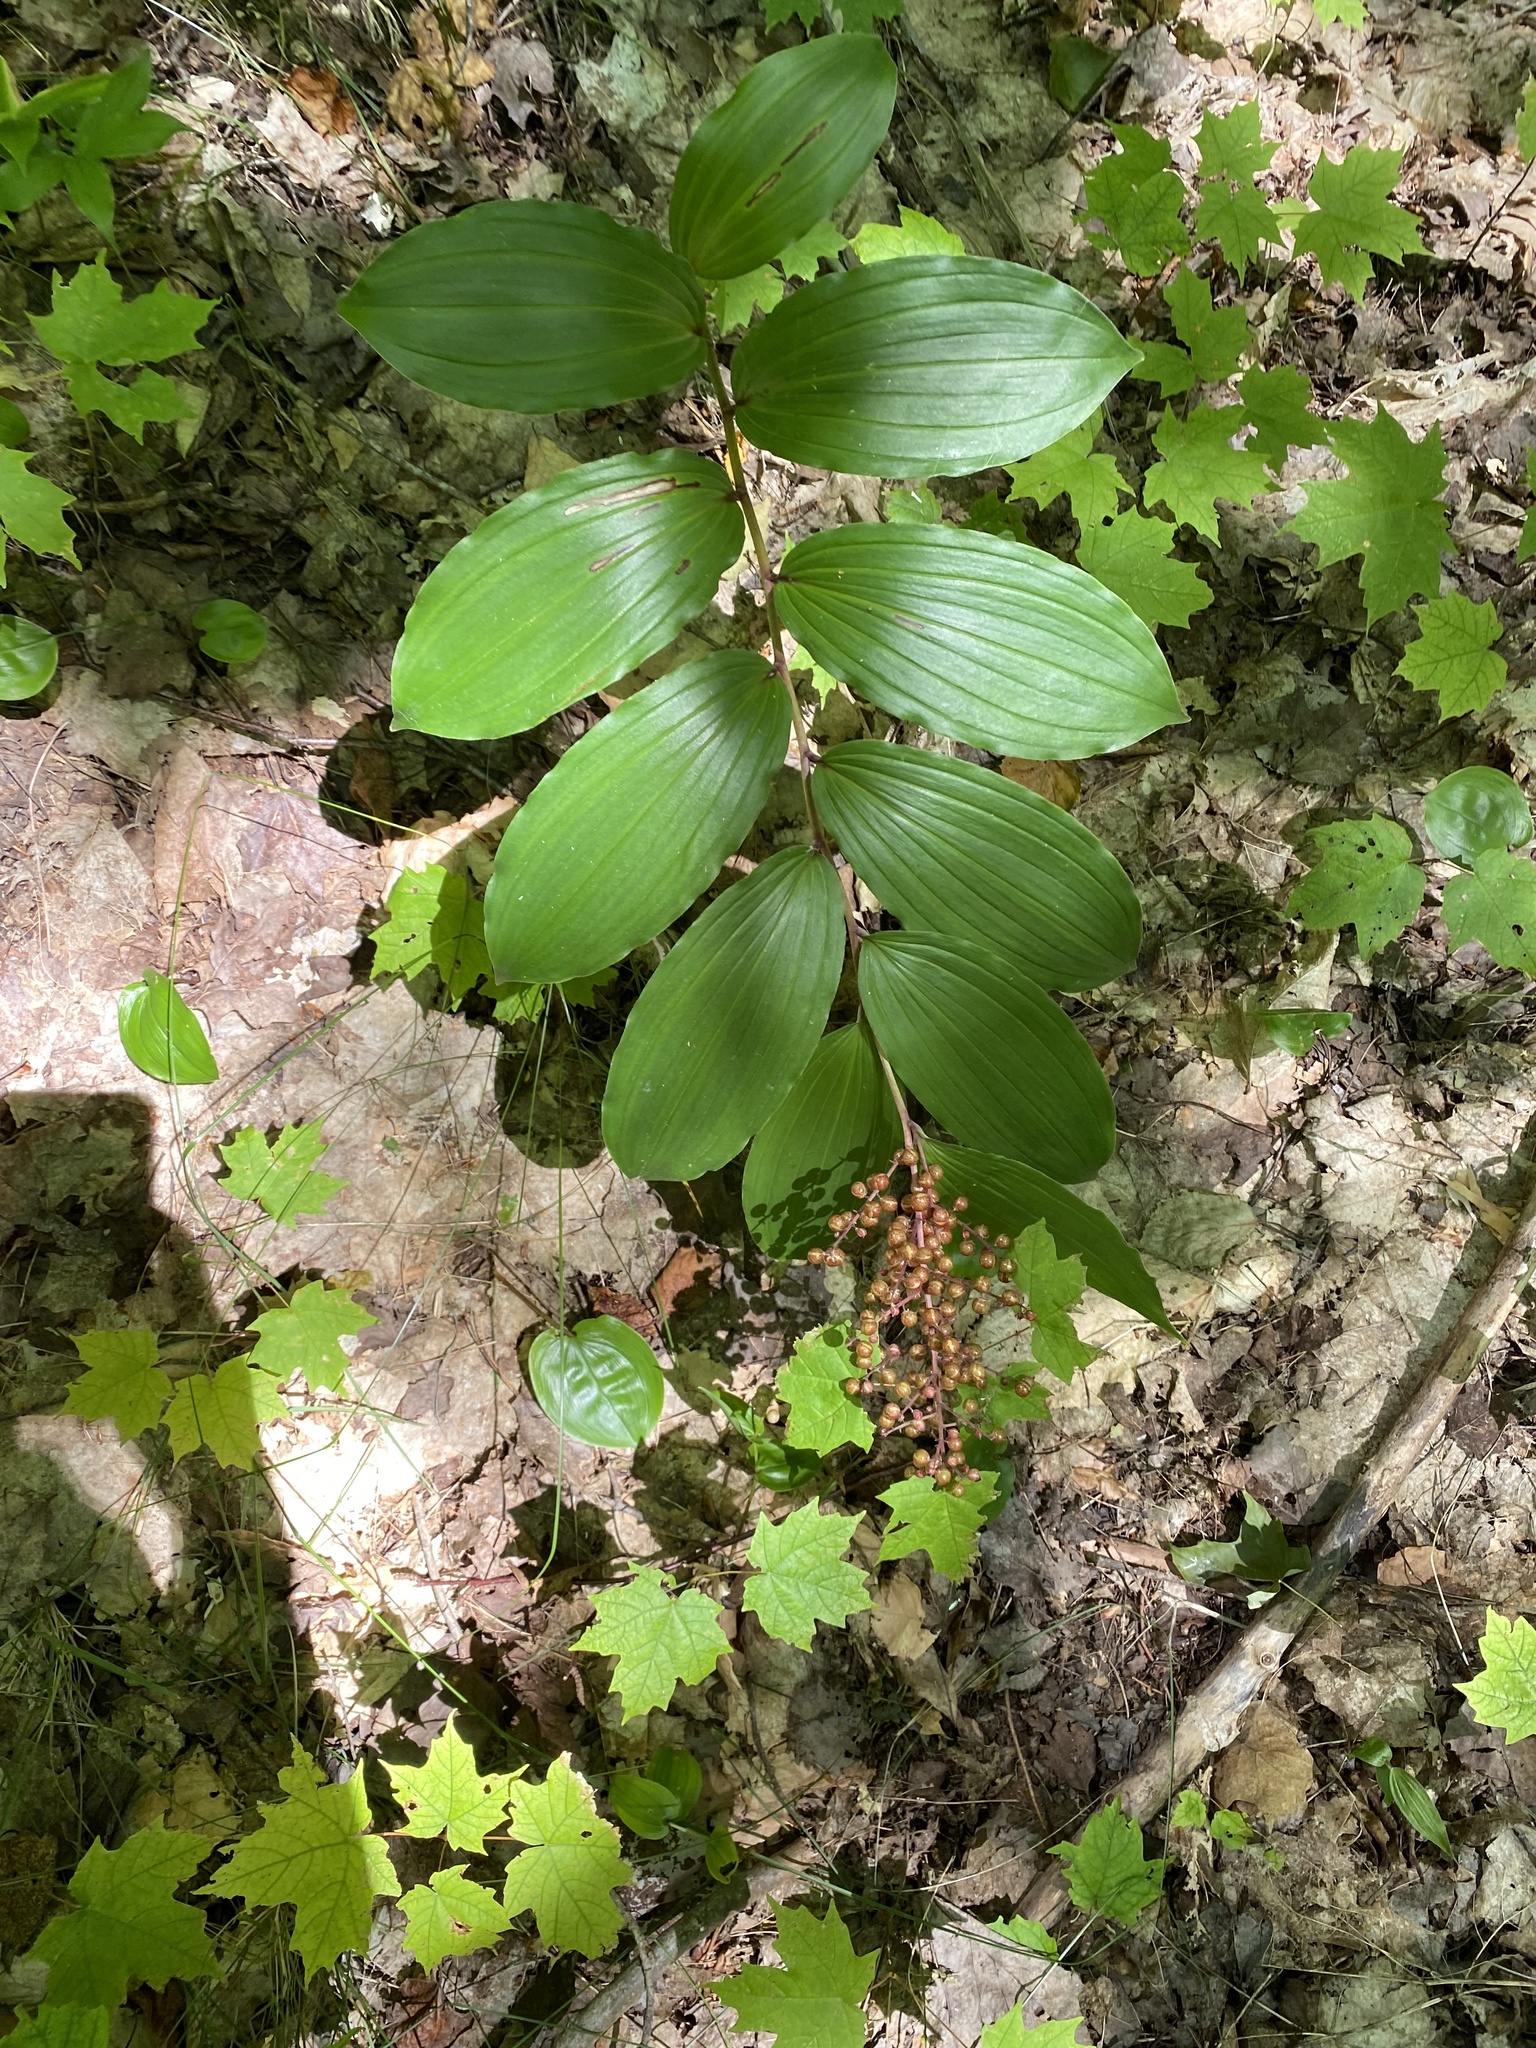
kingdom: Plantae
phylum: Tracheophyta
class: Liliopsida
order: Asparagales
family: Asparagaceae
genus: Maianthemum
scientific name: Maianthemum racemosum
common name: False spikenard
